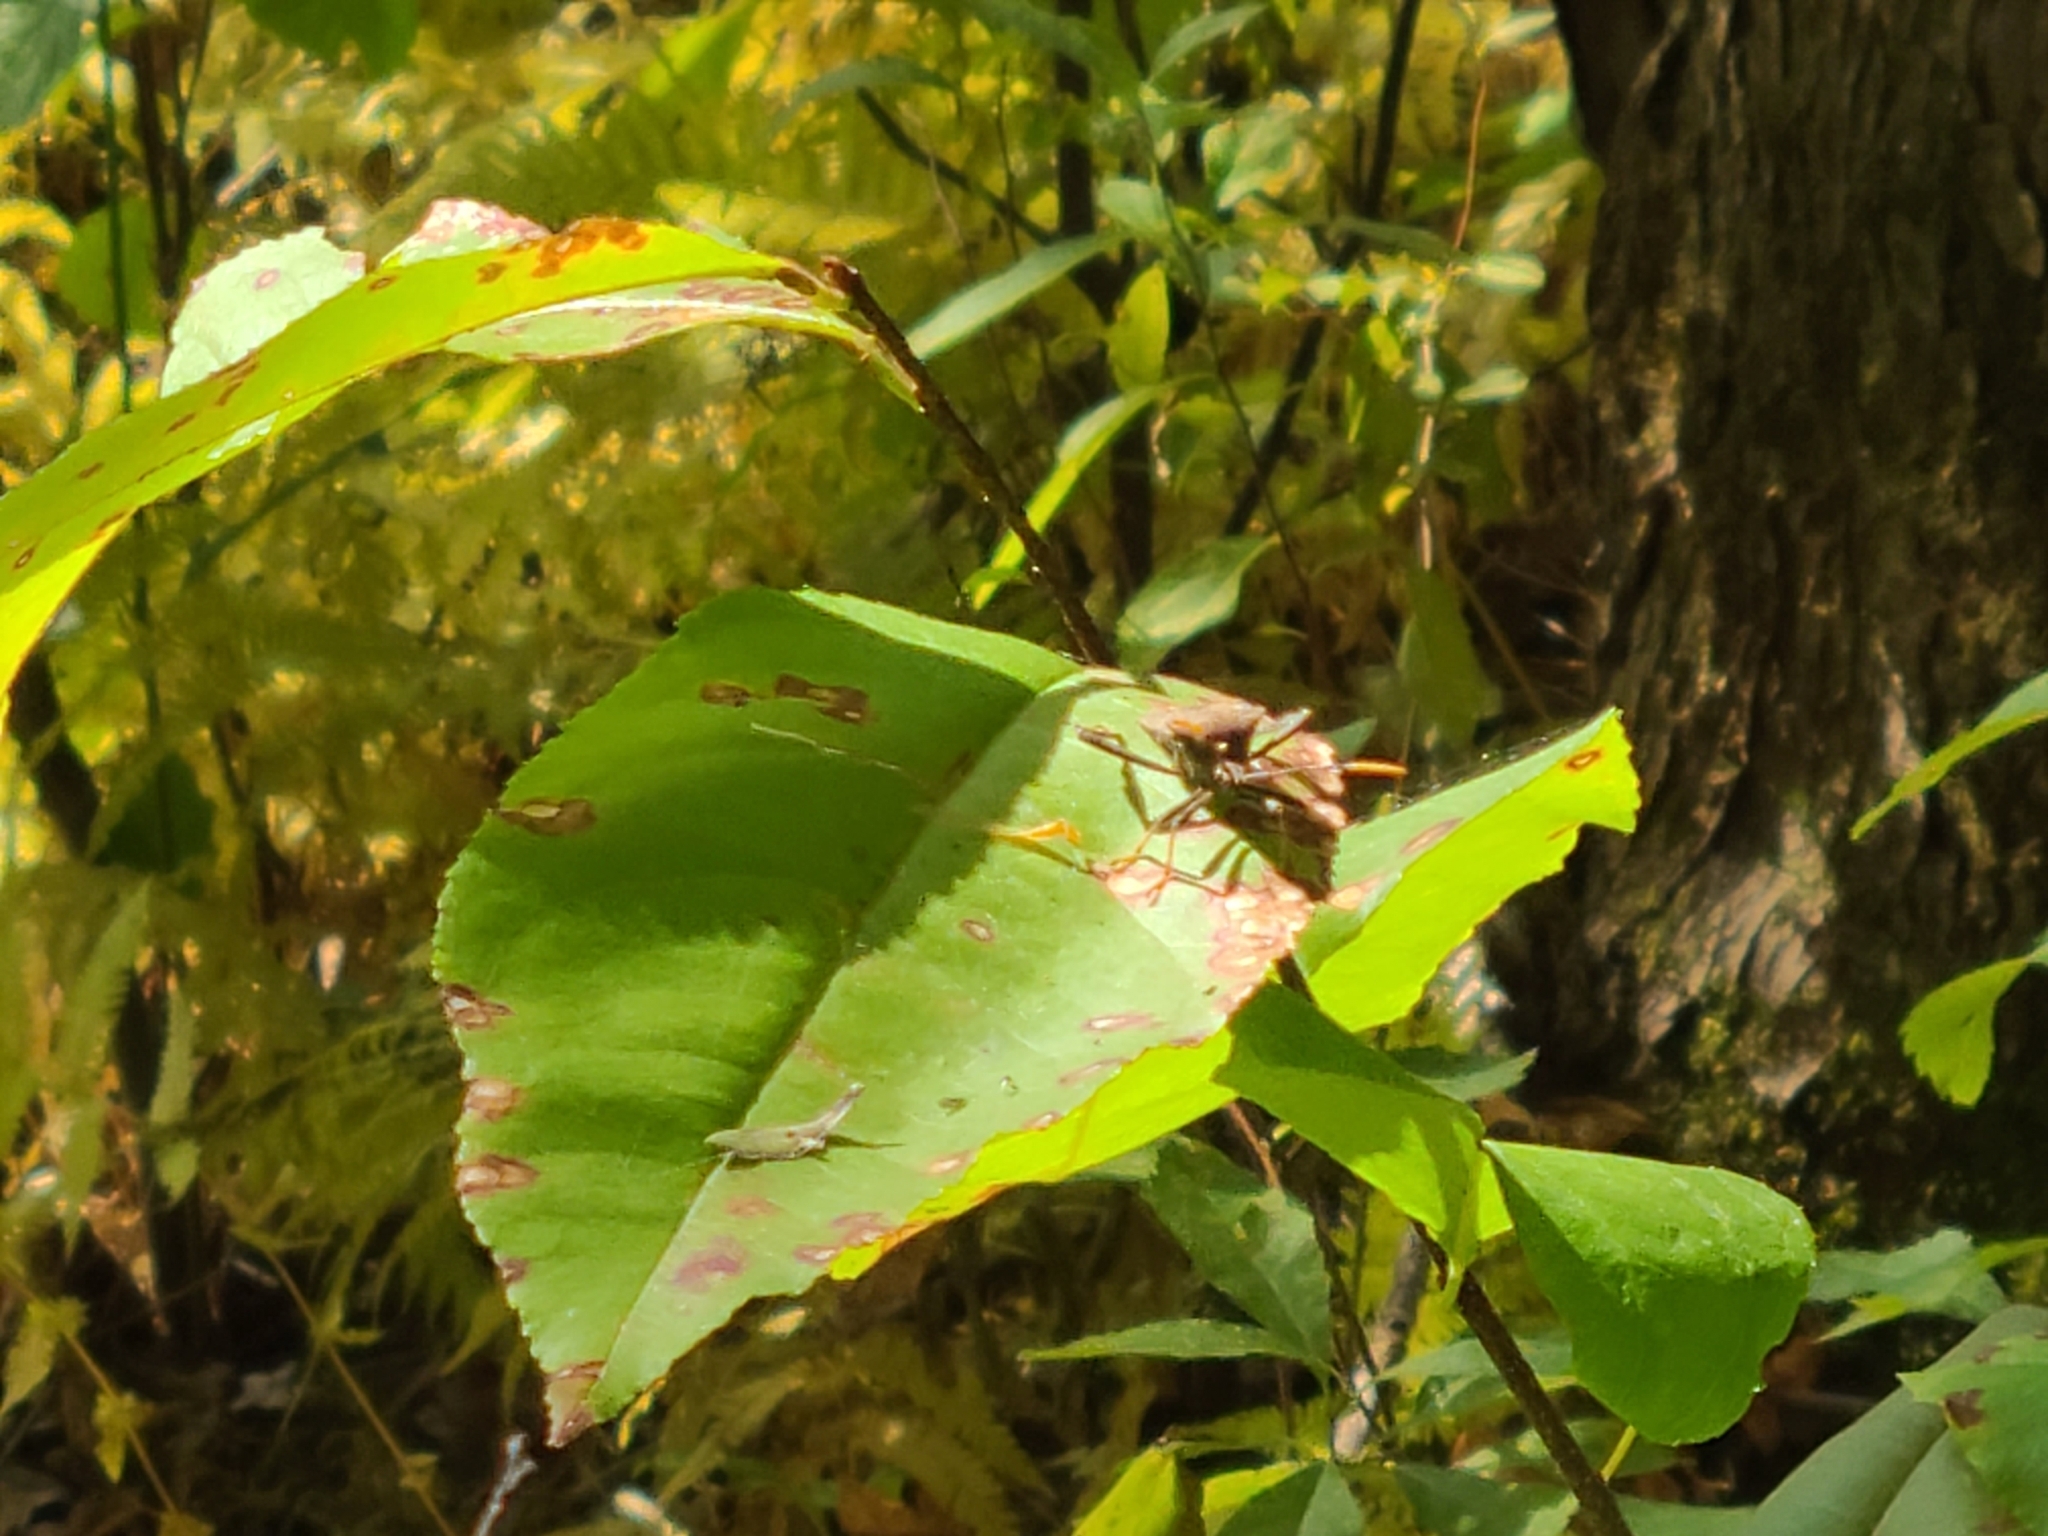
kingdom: Animalia
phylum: Arthropoda
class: Insecta
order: Hemiptera
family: Coreidae
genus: Acanthocephala
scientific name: Acanthocephala terminalis
